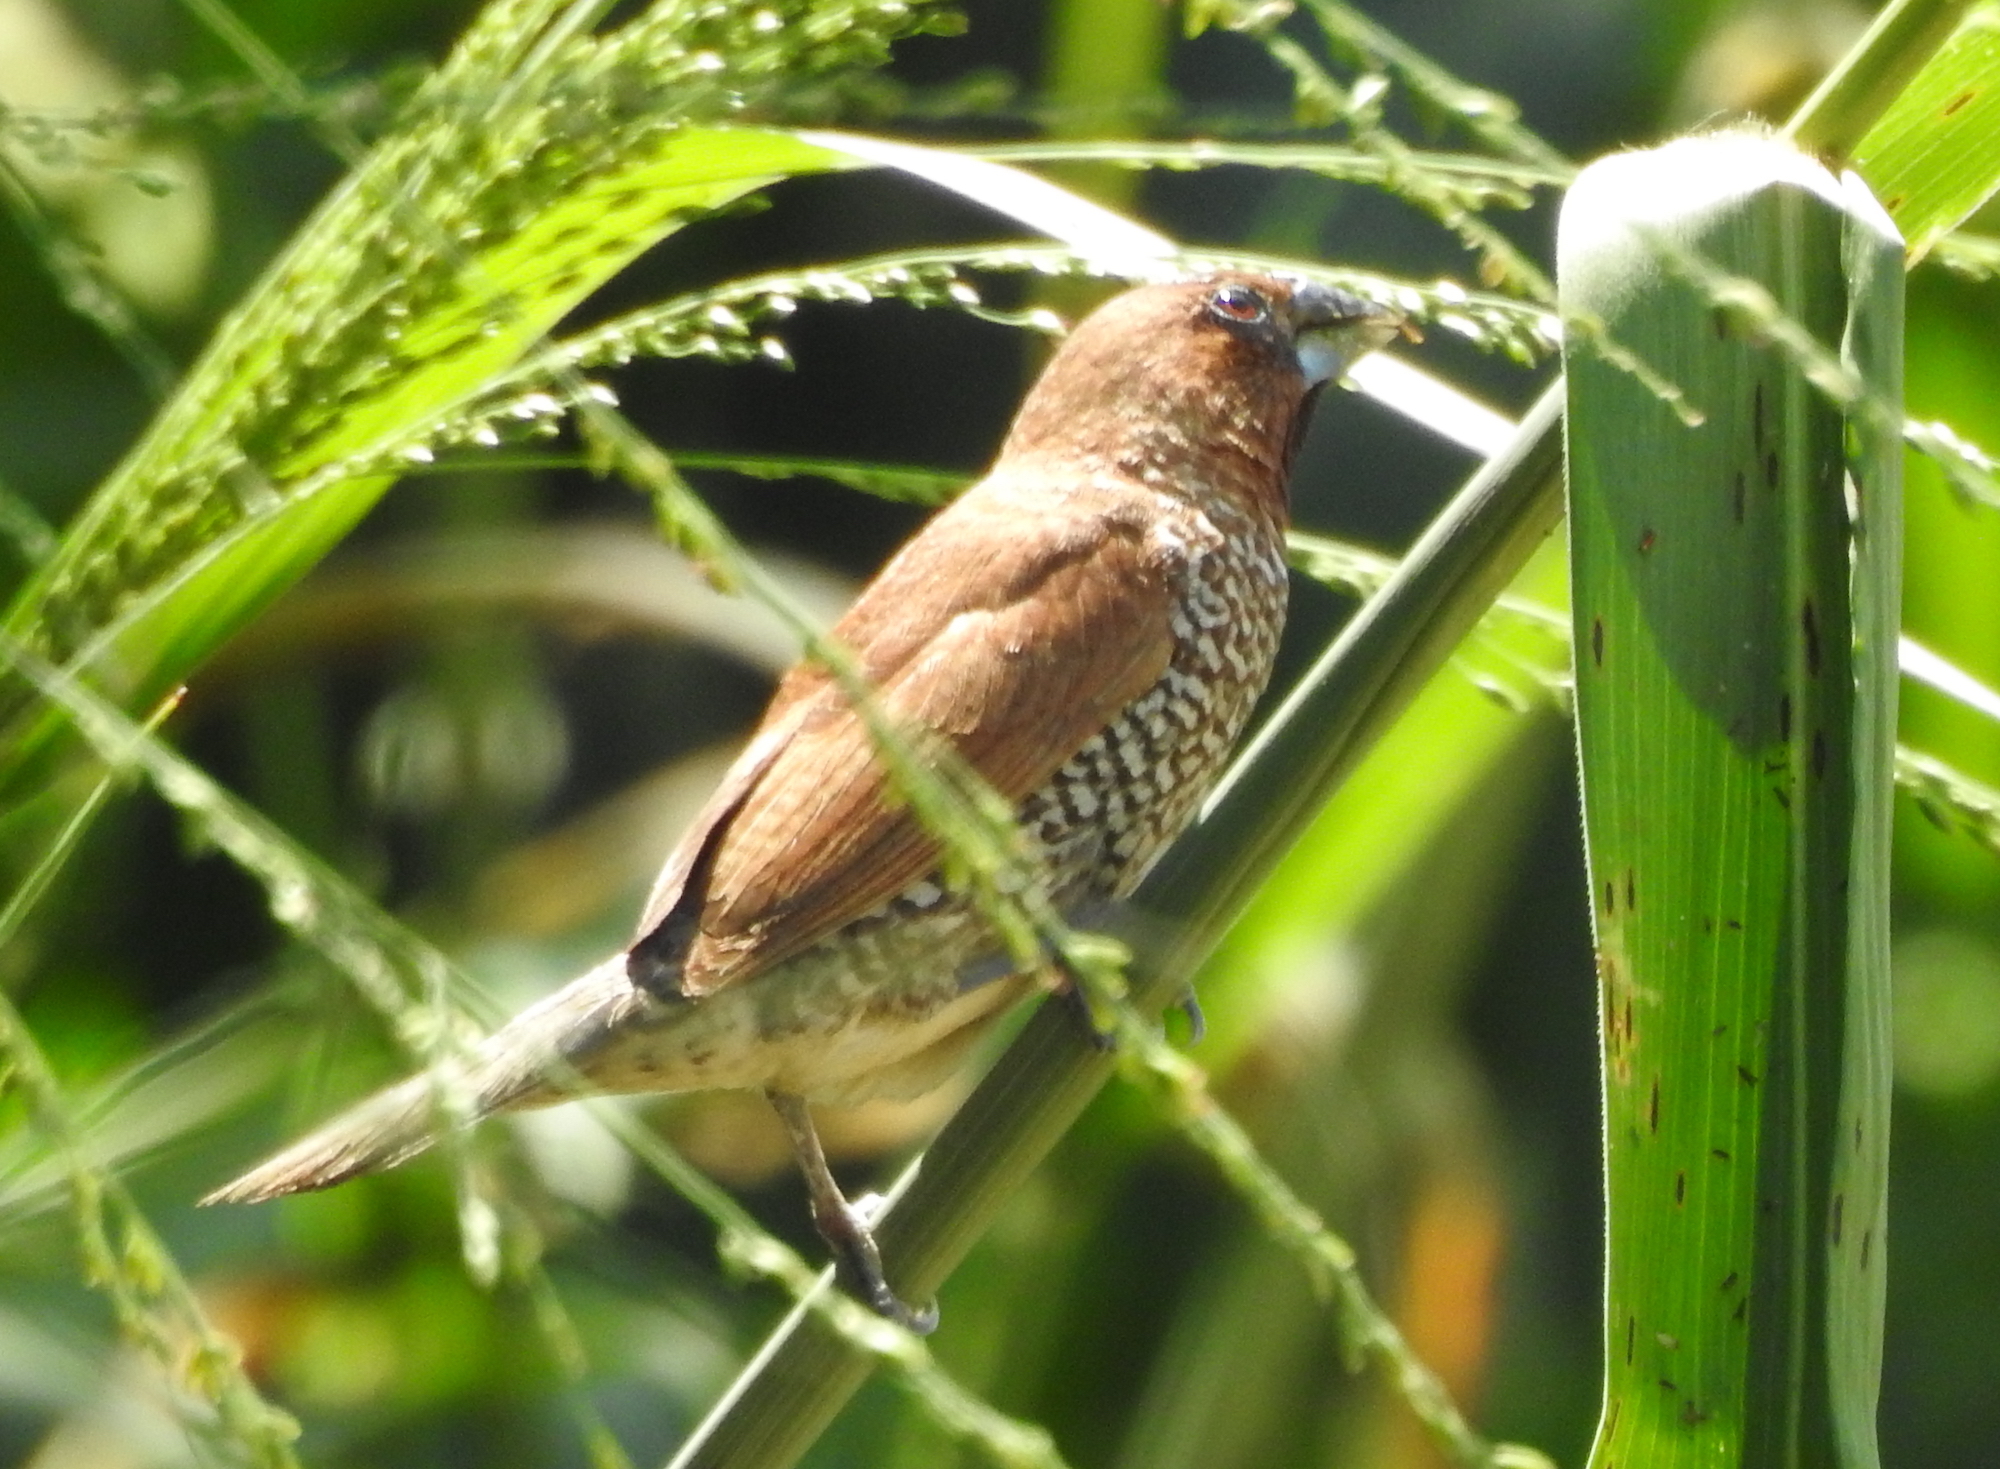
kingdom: Animalia
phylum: Chordata
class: Aves
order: Passeriformes
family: Estrildidae
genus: Lonchura
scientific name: Lonchura punctulata
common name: Scaly-breasted munia
